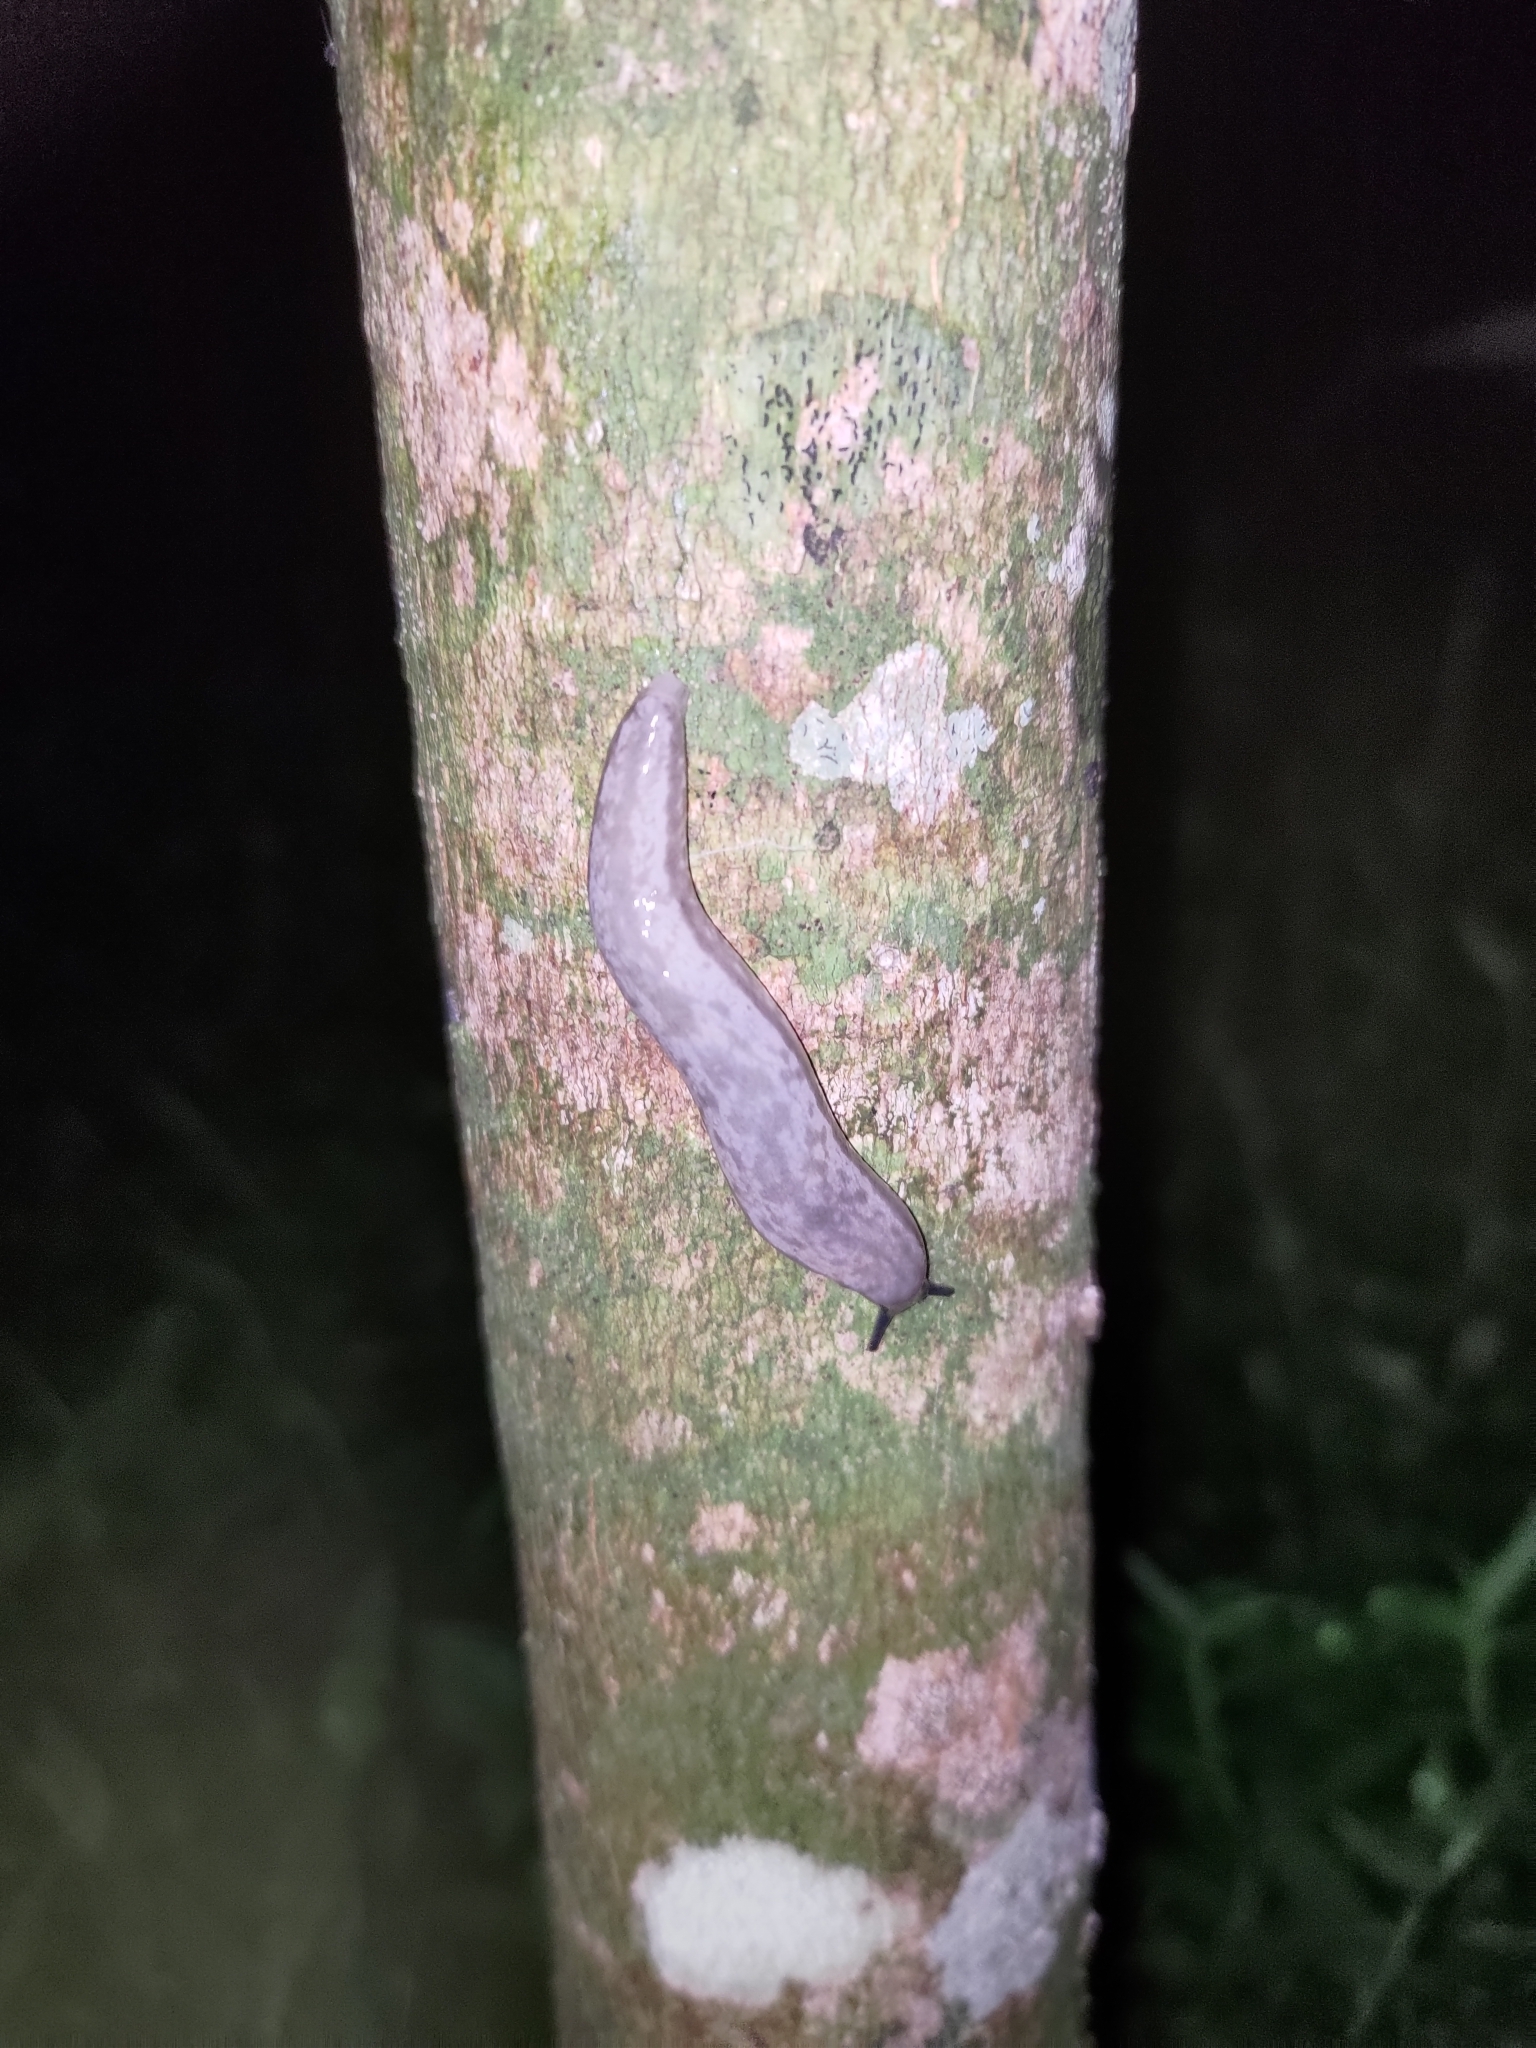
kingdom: Animalia
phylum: Mollusca
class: Gastropoda
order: Stylommatophora
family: Philomycidae
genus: Meghimatium
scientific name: Meghimatium bilineatum
